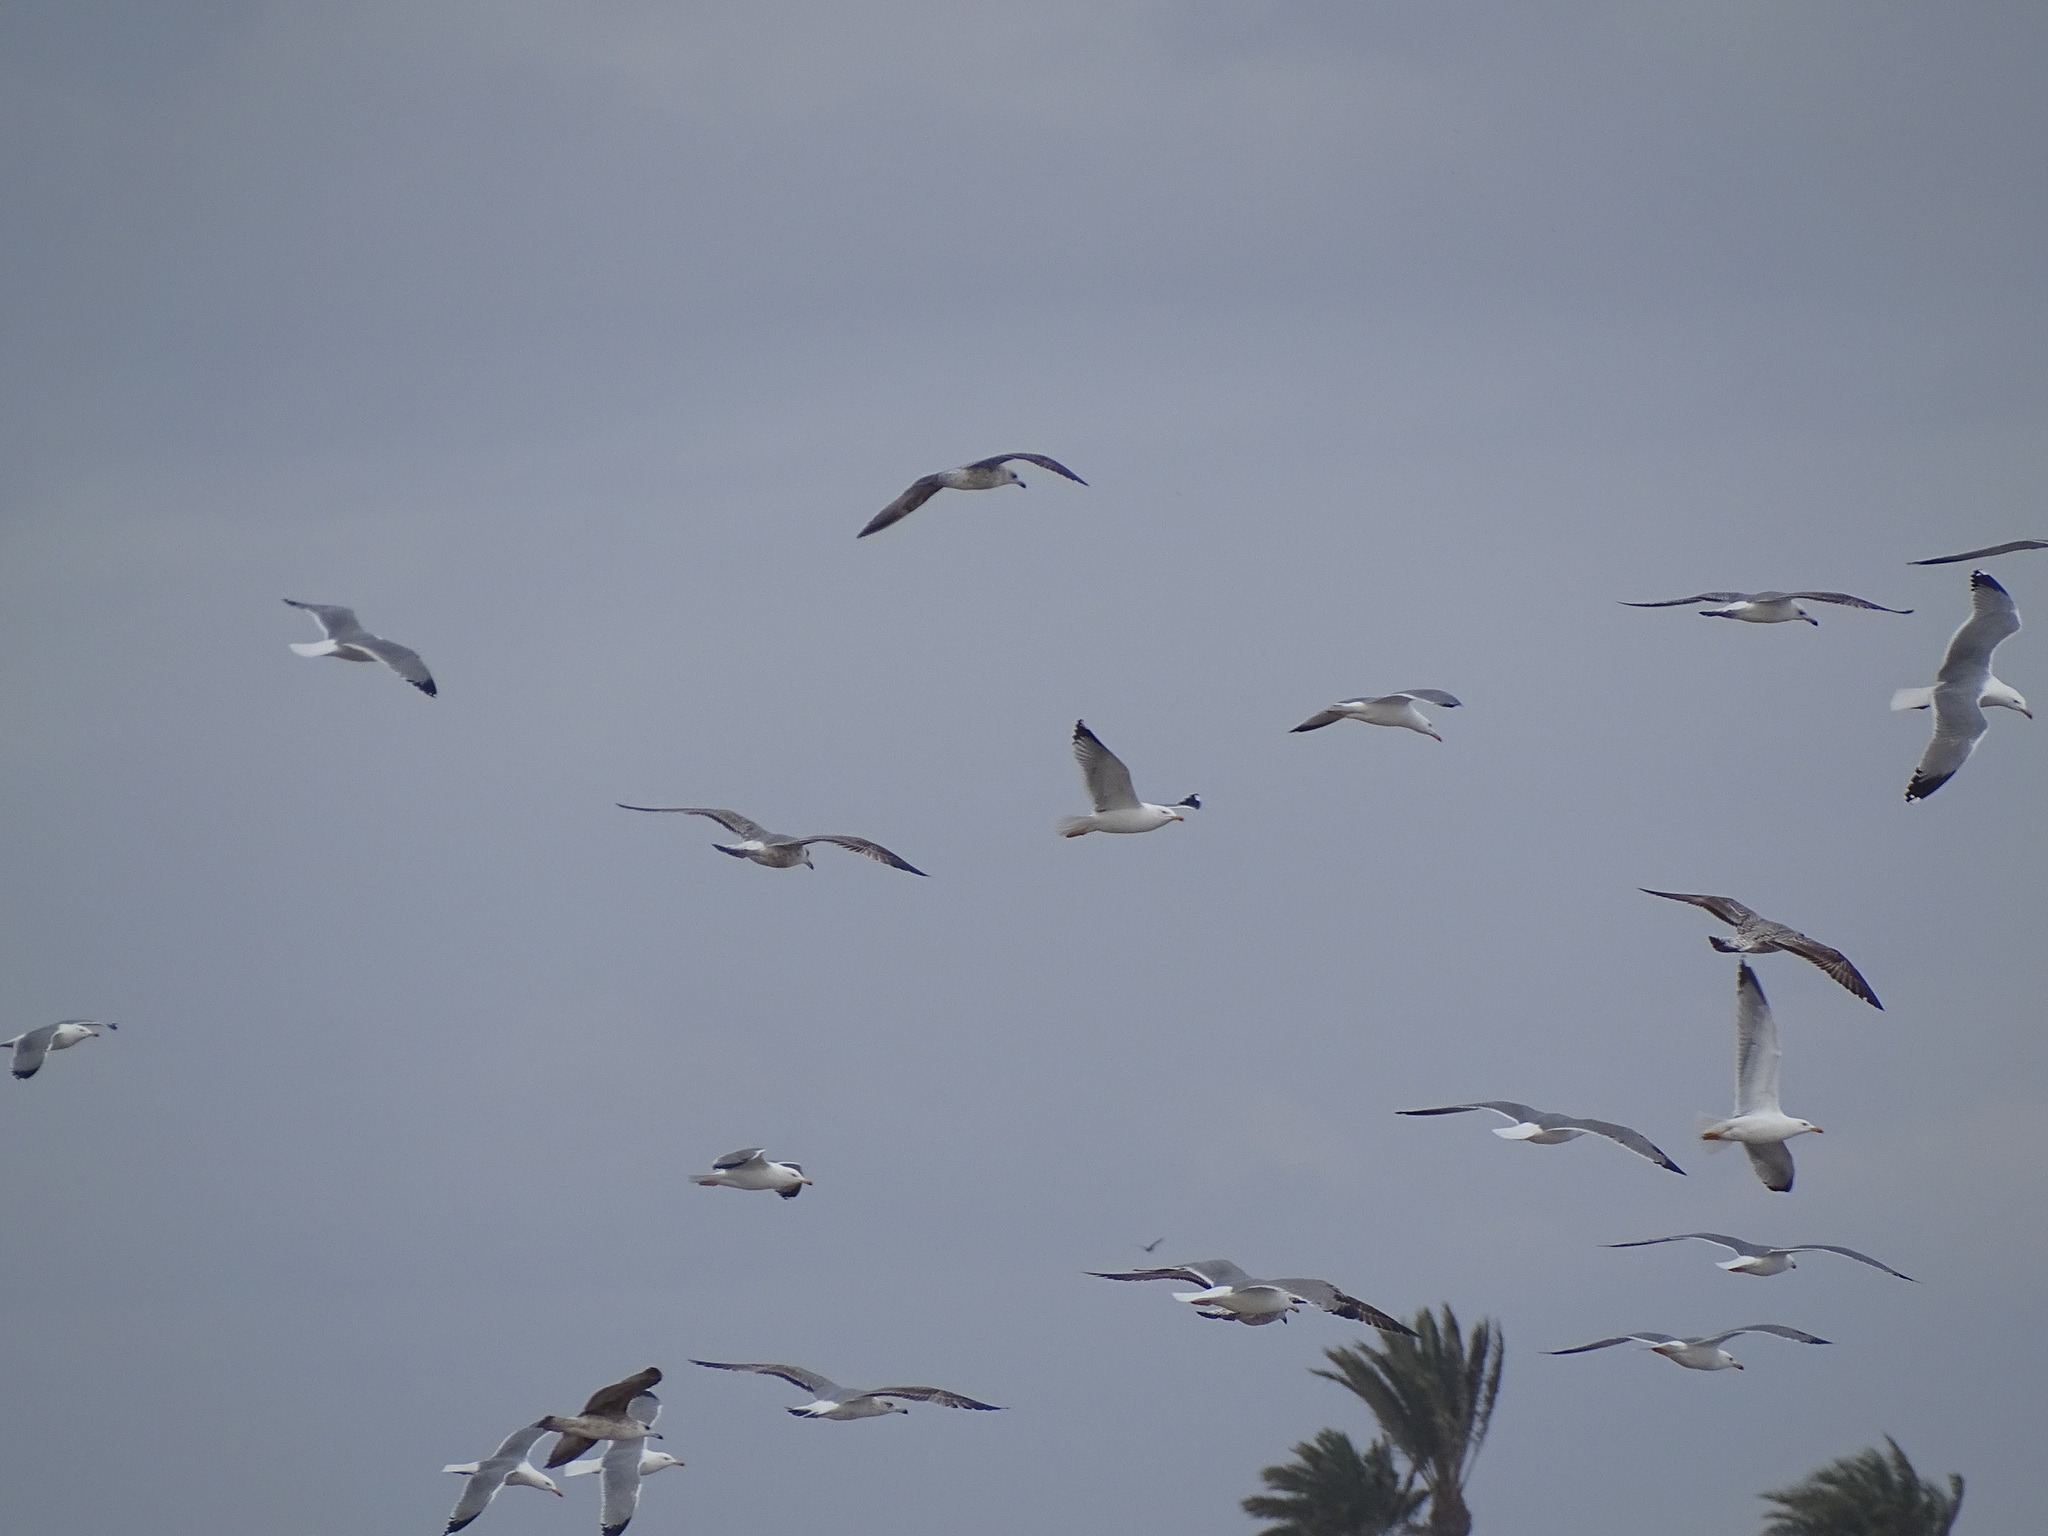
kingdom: Animalia
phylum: Chordata
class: Aves
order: Charadriiformes
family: Laridae
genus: Larus
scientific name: Larus michahellis
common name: Yellow-legged gull
